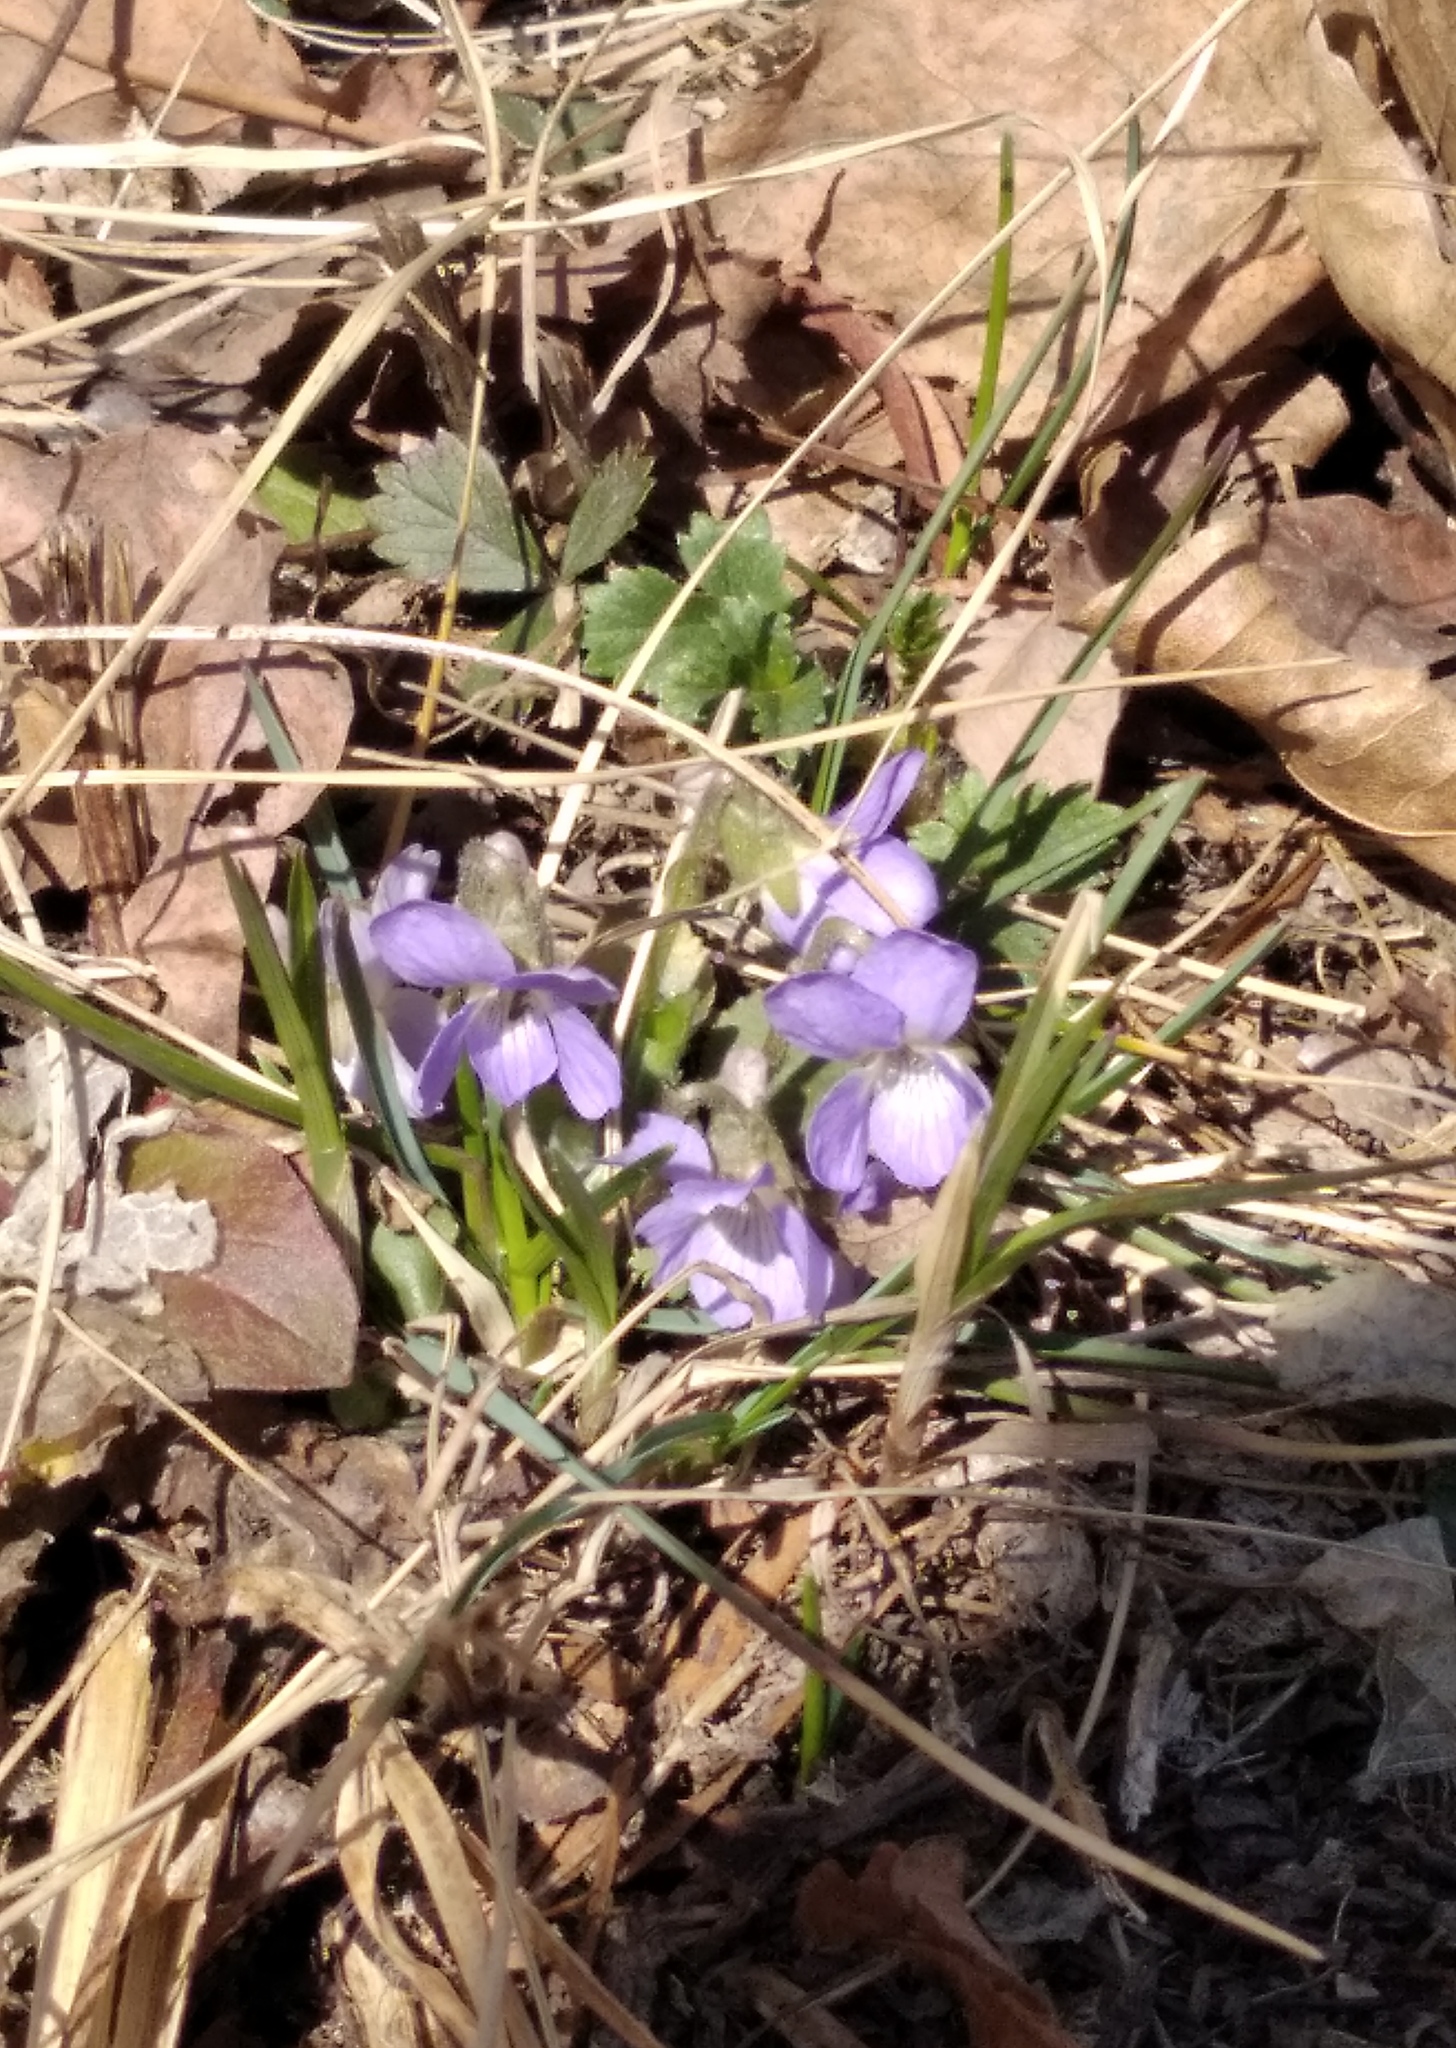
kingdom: Plantae
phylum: Tracheophyta
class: Magnoliopsida
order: Malpighiales
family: Violaceae
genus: Viola
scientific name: Viola collina
